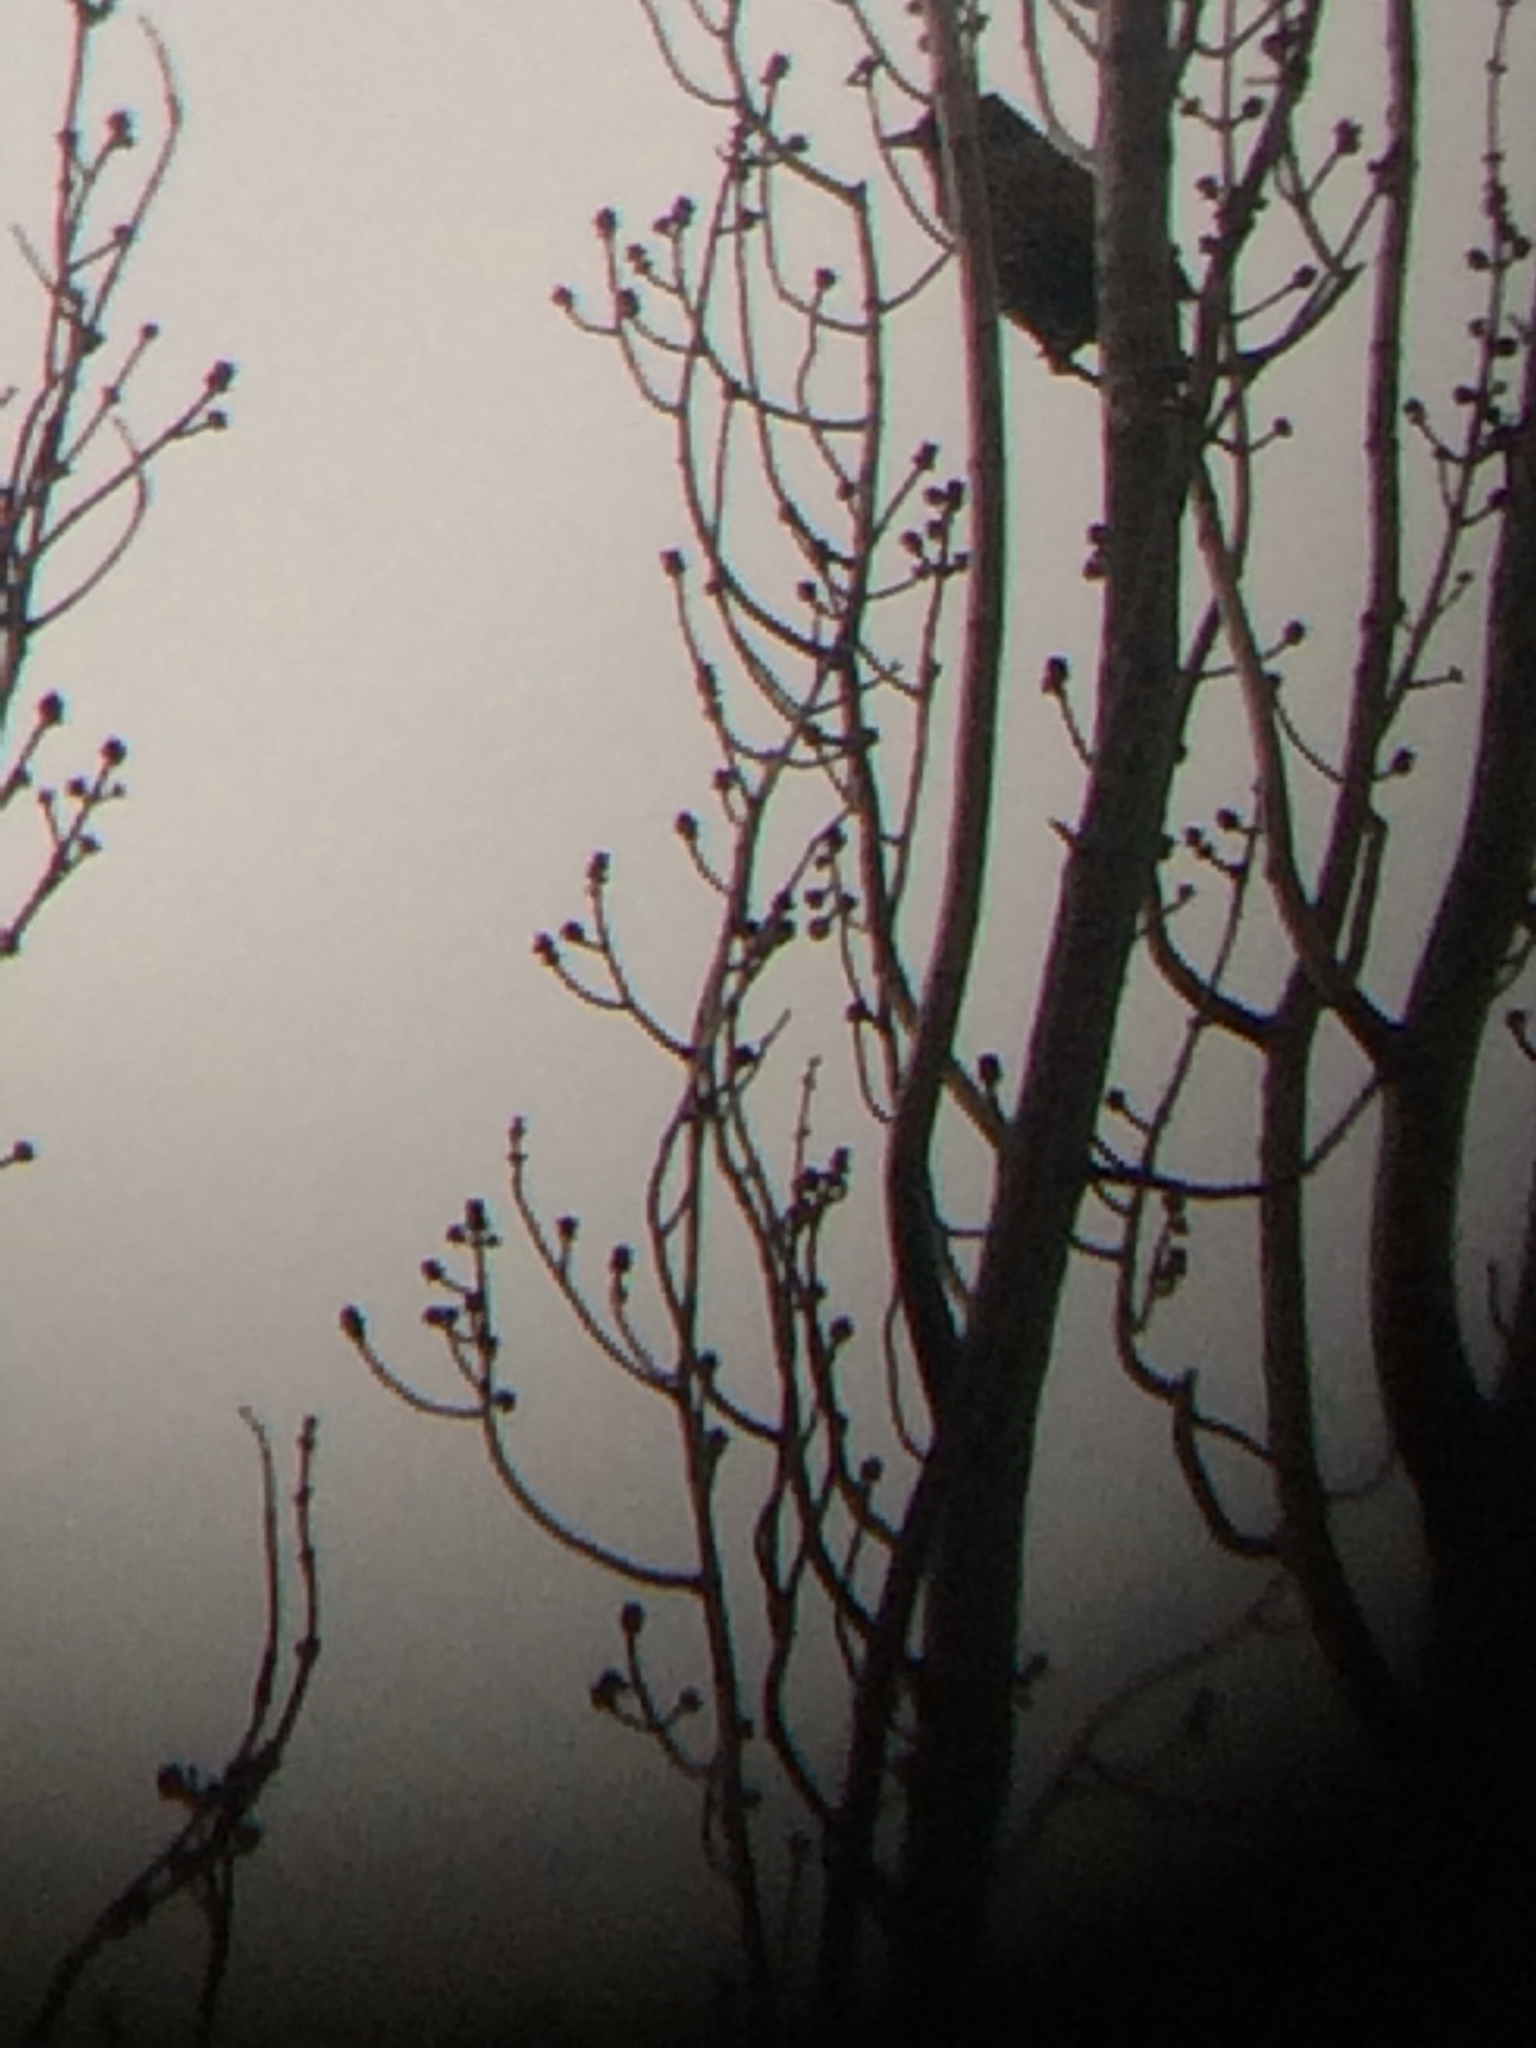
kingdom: Animalia
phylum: Chordata
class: Aves
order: Passeriformes
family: Sturnidae
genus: Sturnus
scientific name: Sturnus vulgaris
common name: Common starling
